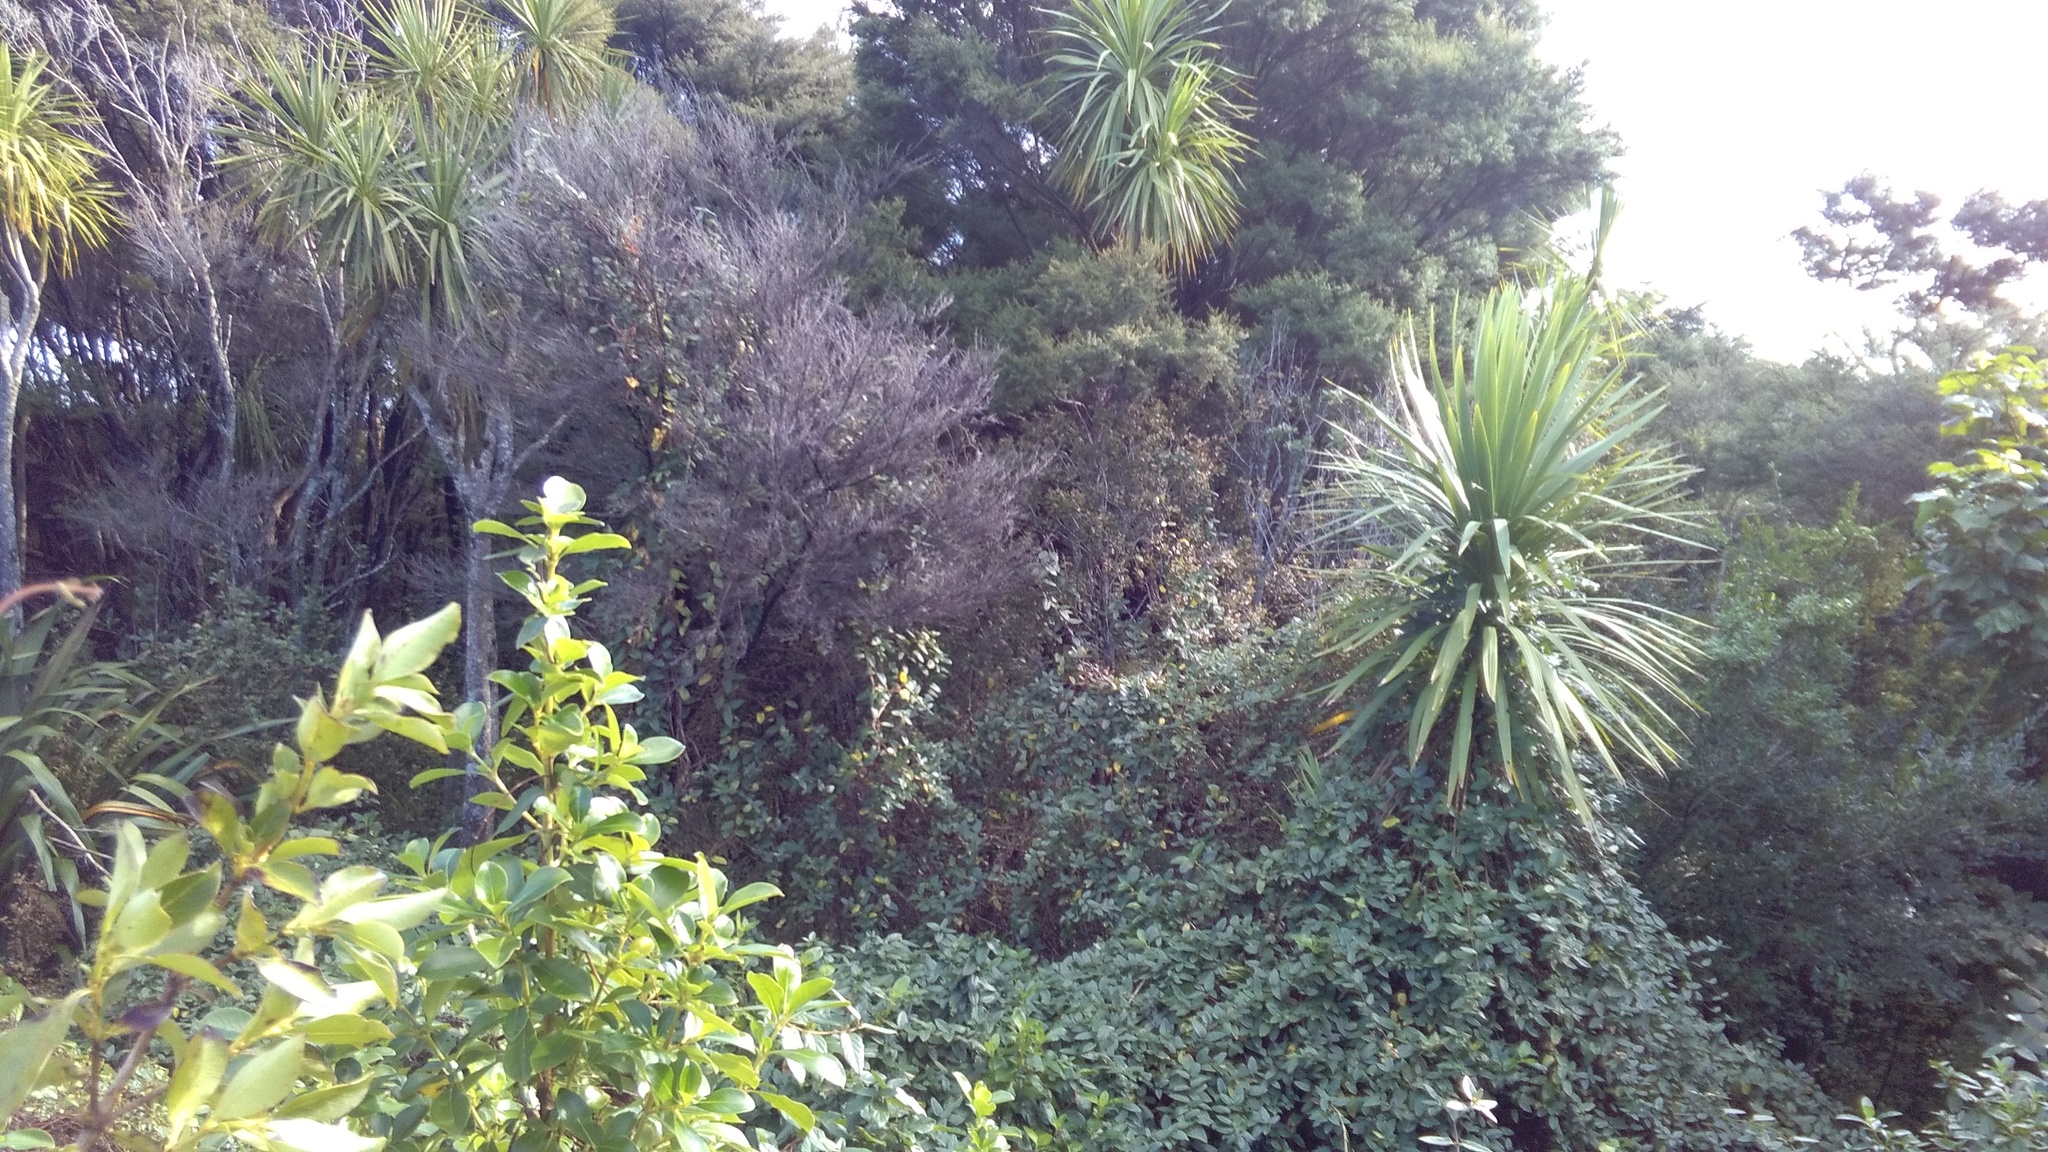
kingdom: Plantae
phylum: Tracheophyta
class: Magnoliopsida
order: Dipsacales
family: Caprifoliaceae
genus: Lonicera
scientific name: Lonicera japonica
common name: Japanese honeysuckle
